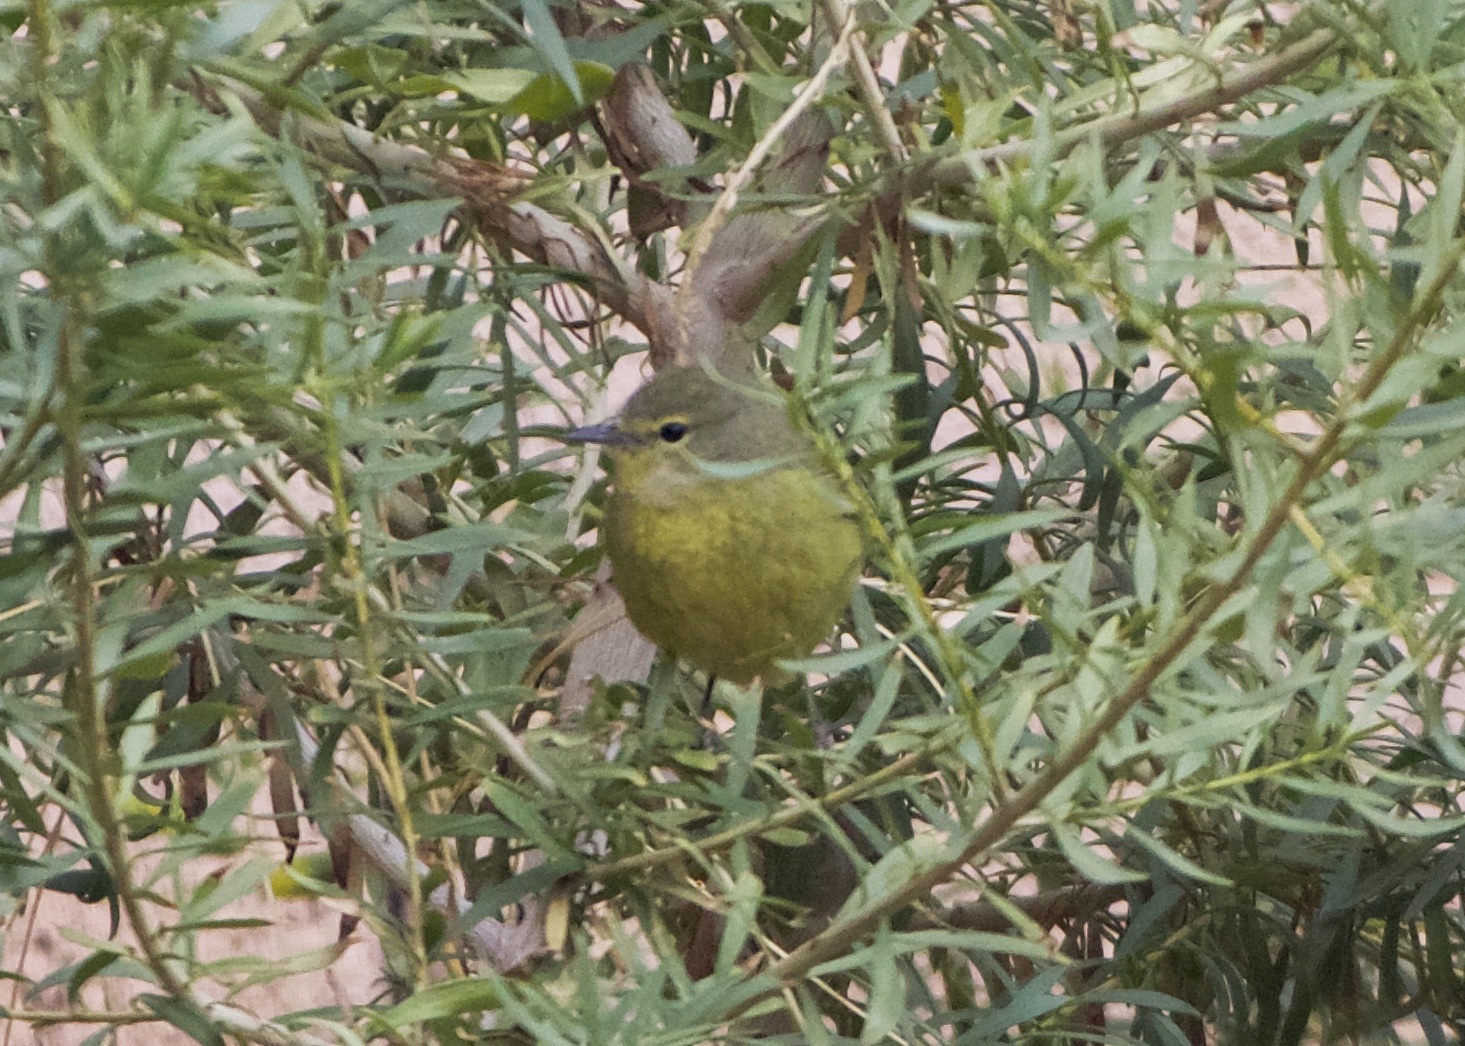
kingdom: Animalia
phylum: Chordata
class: Aves
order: Passeriformes
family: Parulidae
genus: Leiothlypis
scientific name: Leiothlypis celata
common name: Orange-crowned warbler
